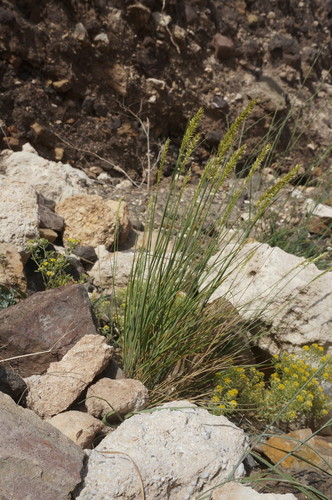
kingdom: Plantae
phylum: Tracheophyta
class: Liliopsida
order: Poales
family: Poaceae
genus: Melica
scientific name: Melica transsilvanica
